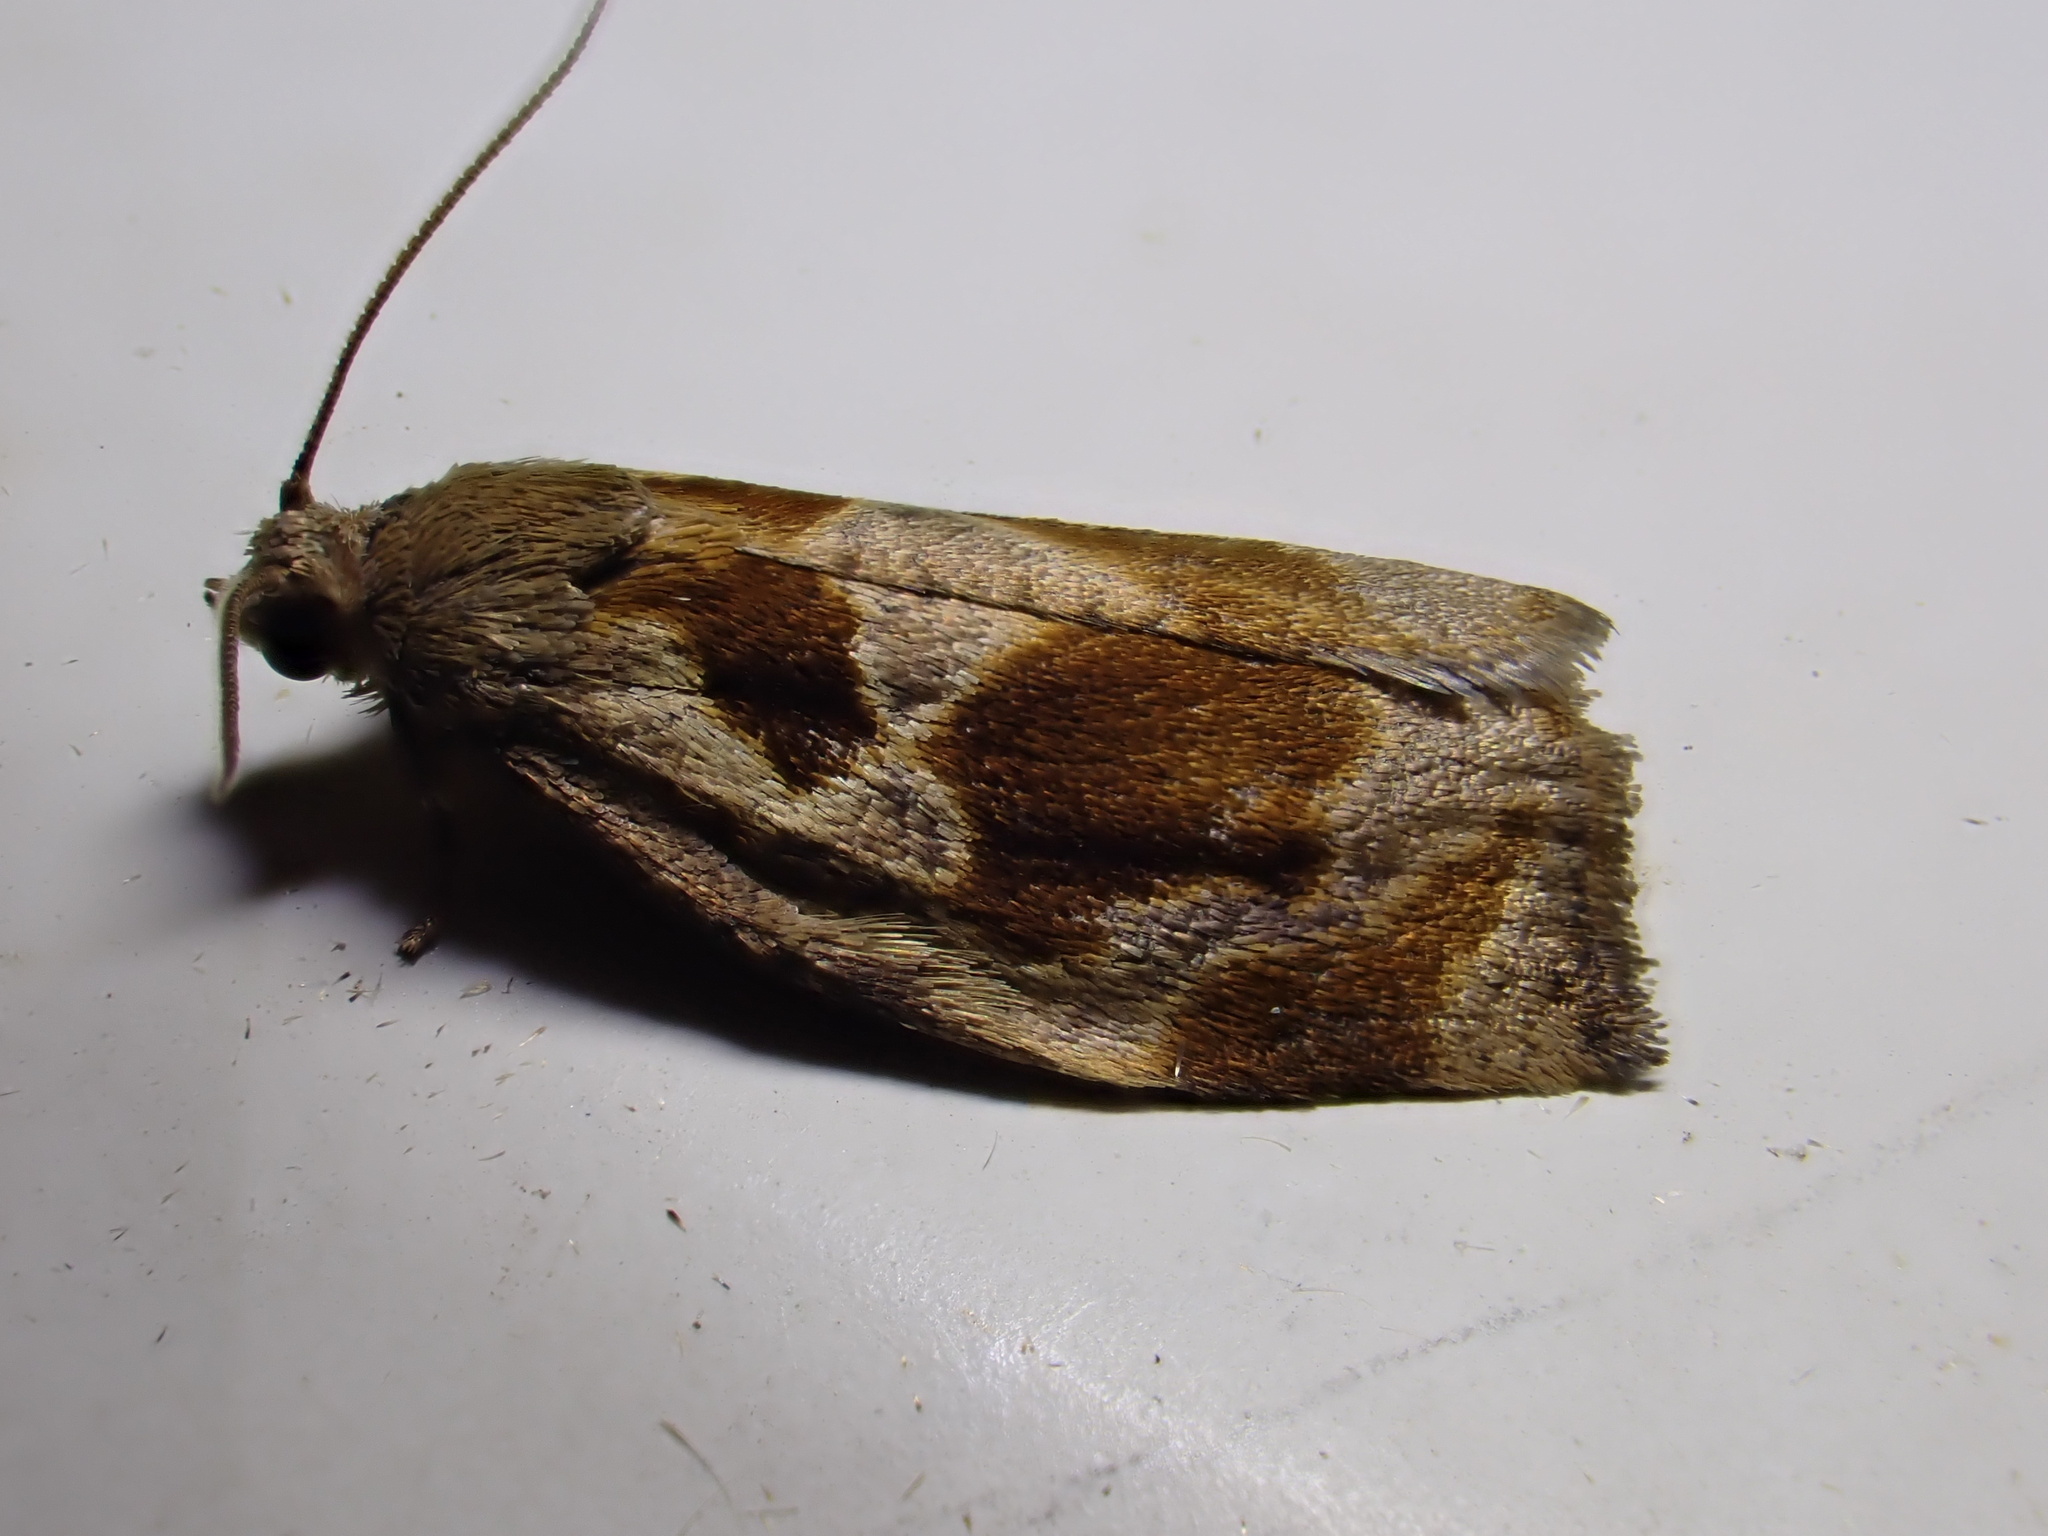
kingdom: Animalia
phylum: Arthropoda
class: Insecta
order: Lepidoptera
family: Tortricidae
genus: Archips
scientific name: Archips crataegana
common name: Brown oak tortrix
